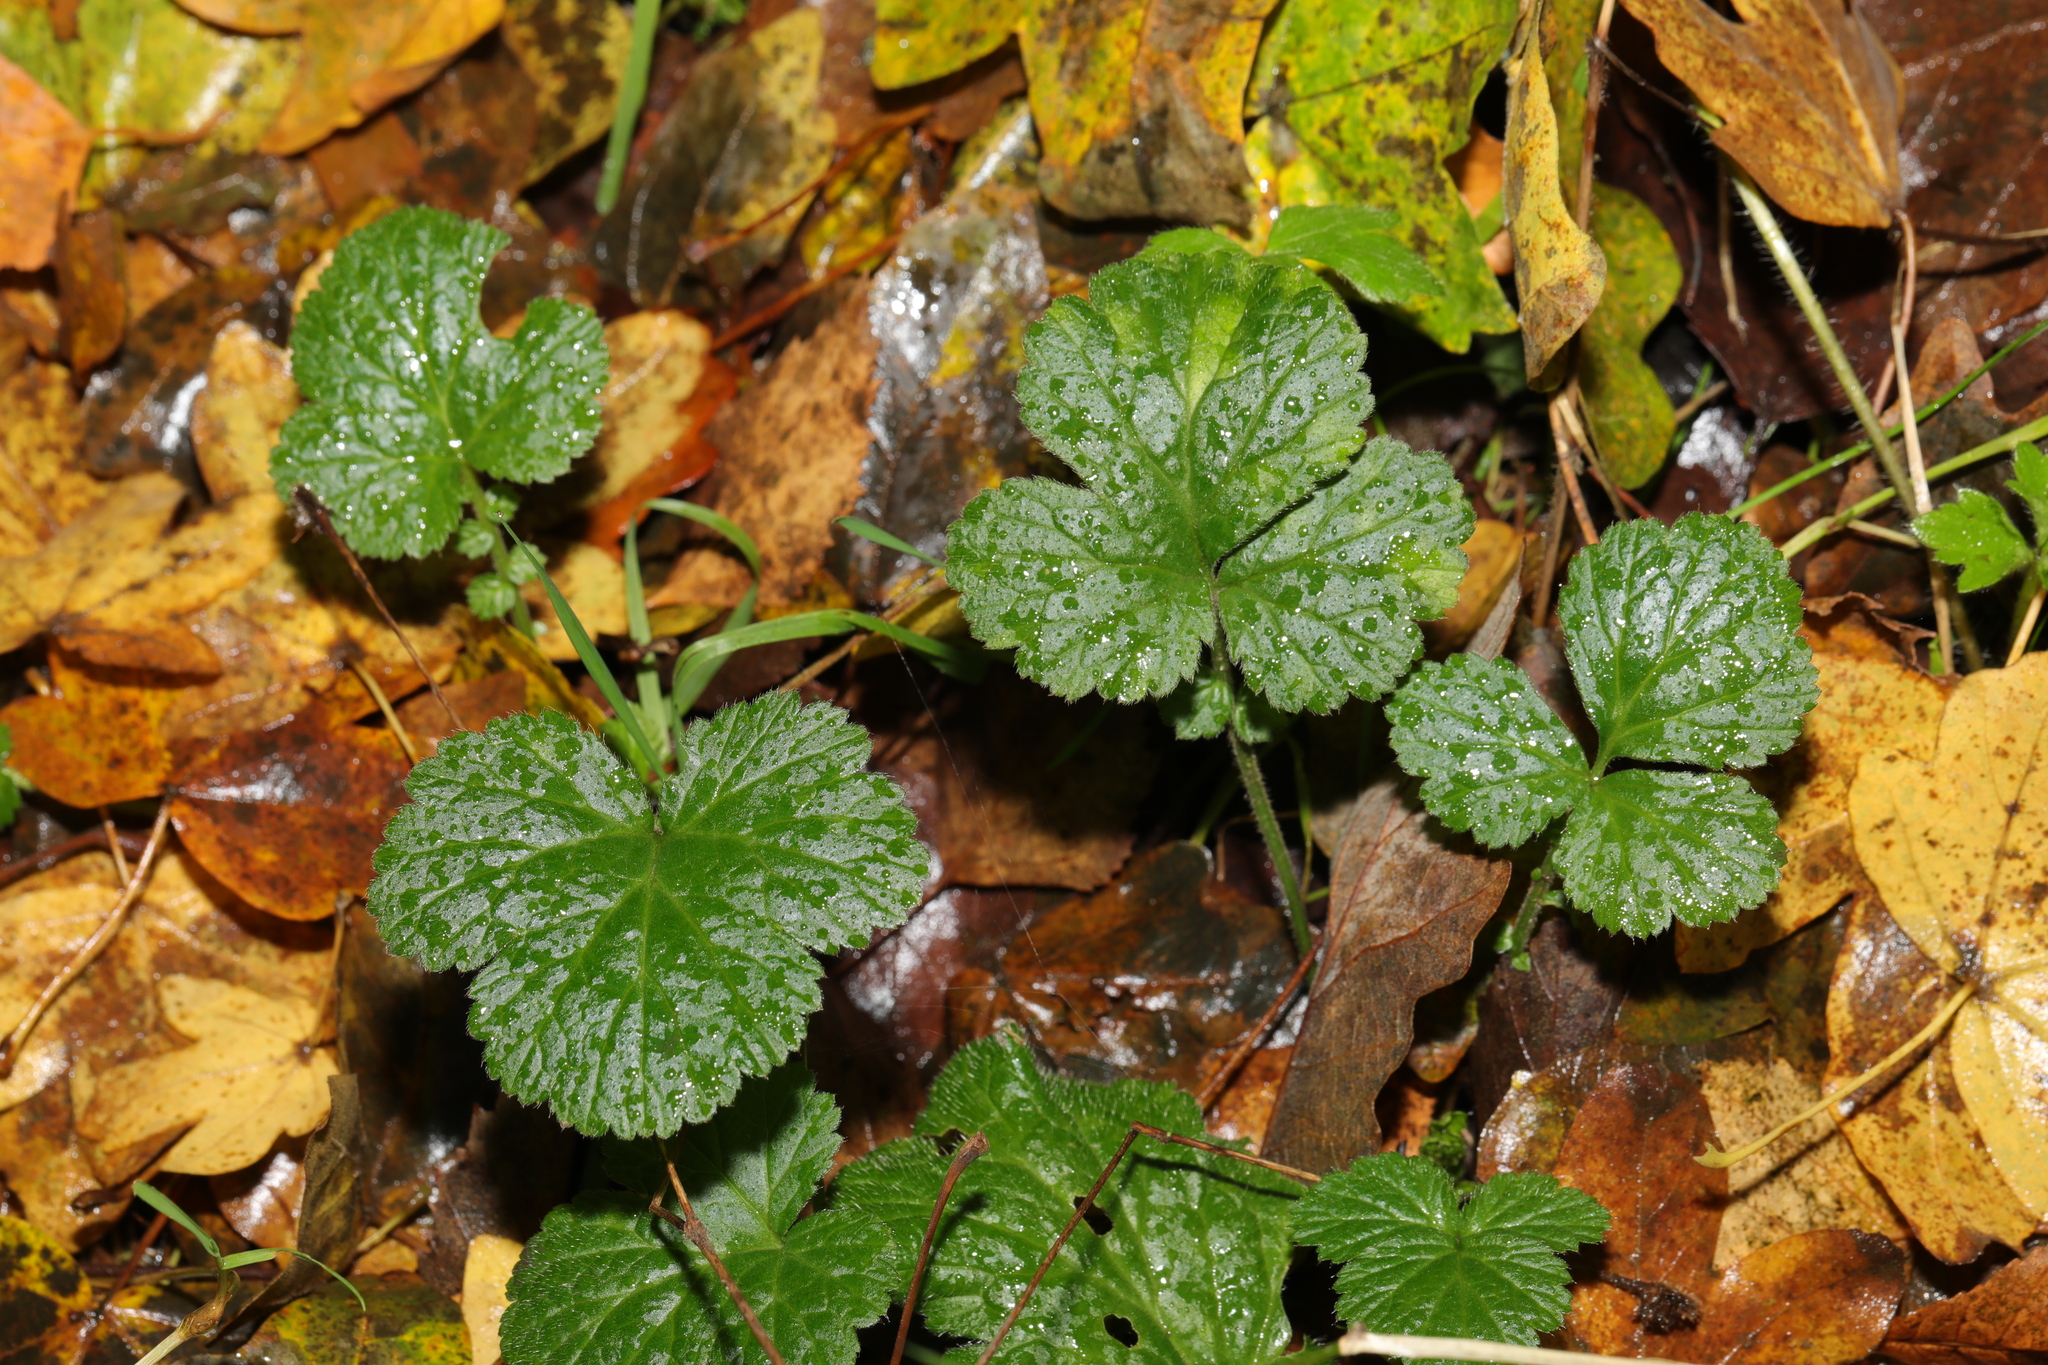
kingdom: Plantae
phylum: Tracheophyta
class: Magnoliopsida
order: Rosales
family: Rosaceae
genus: Geum
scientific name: Geum urbanum
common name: Wood avens
